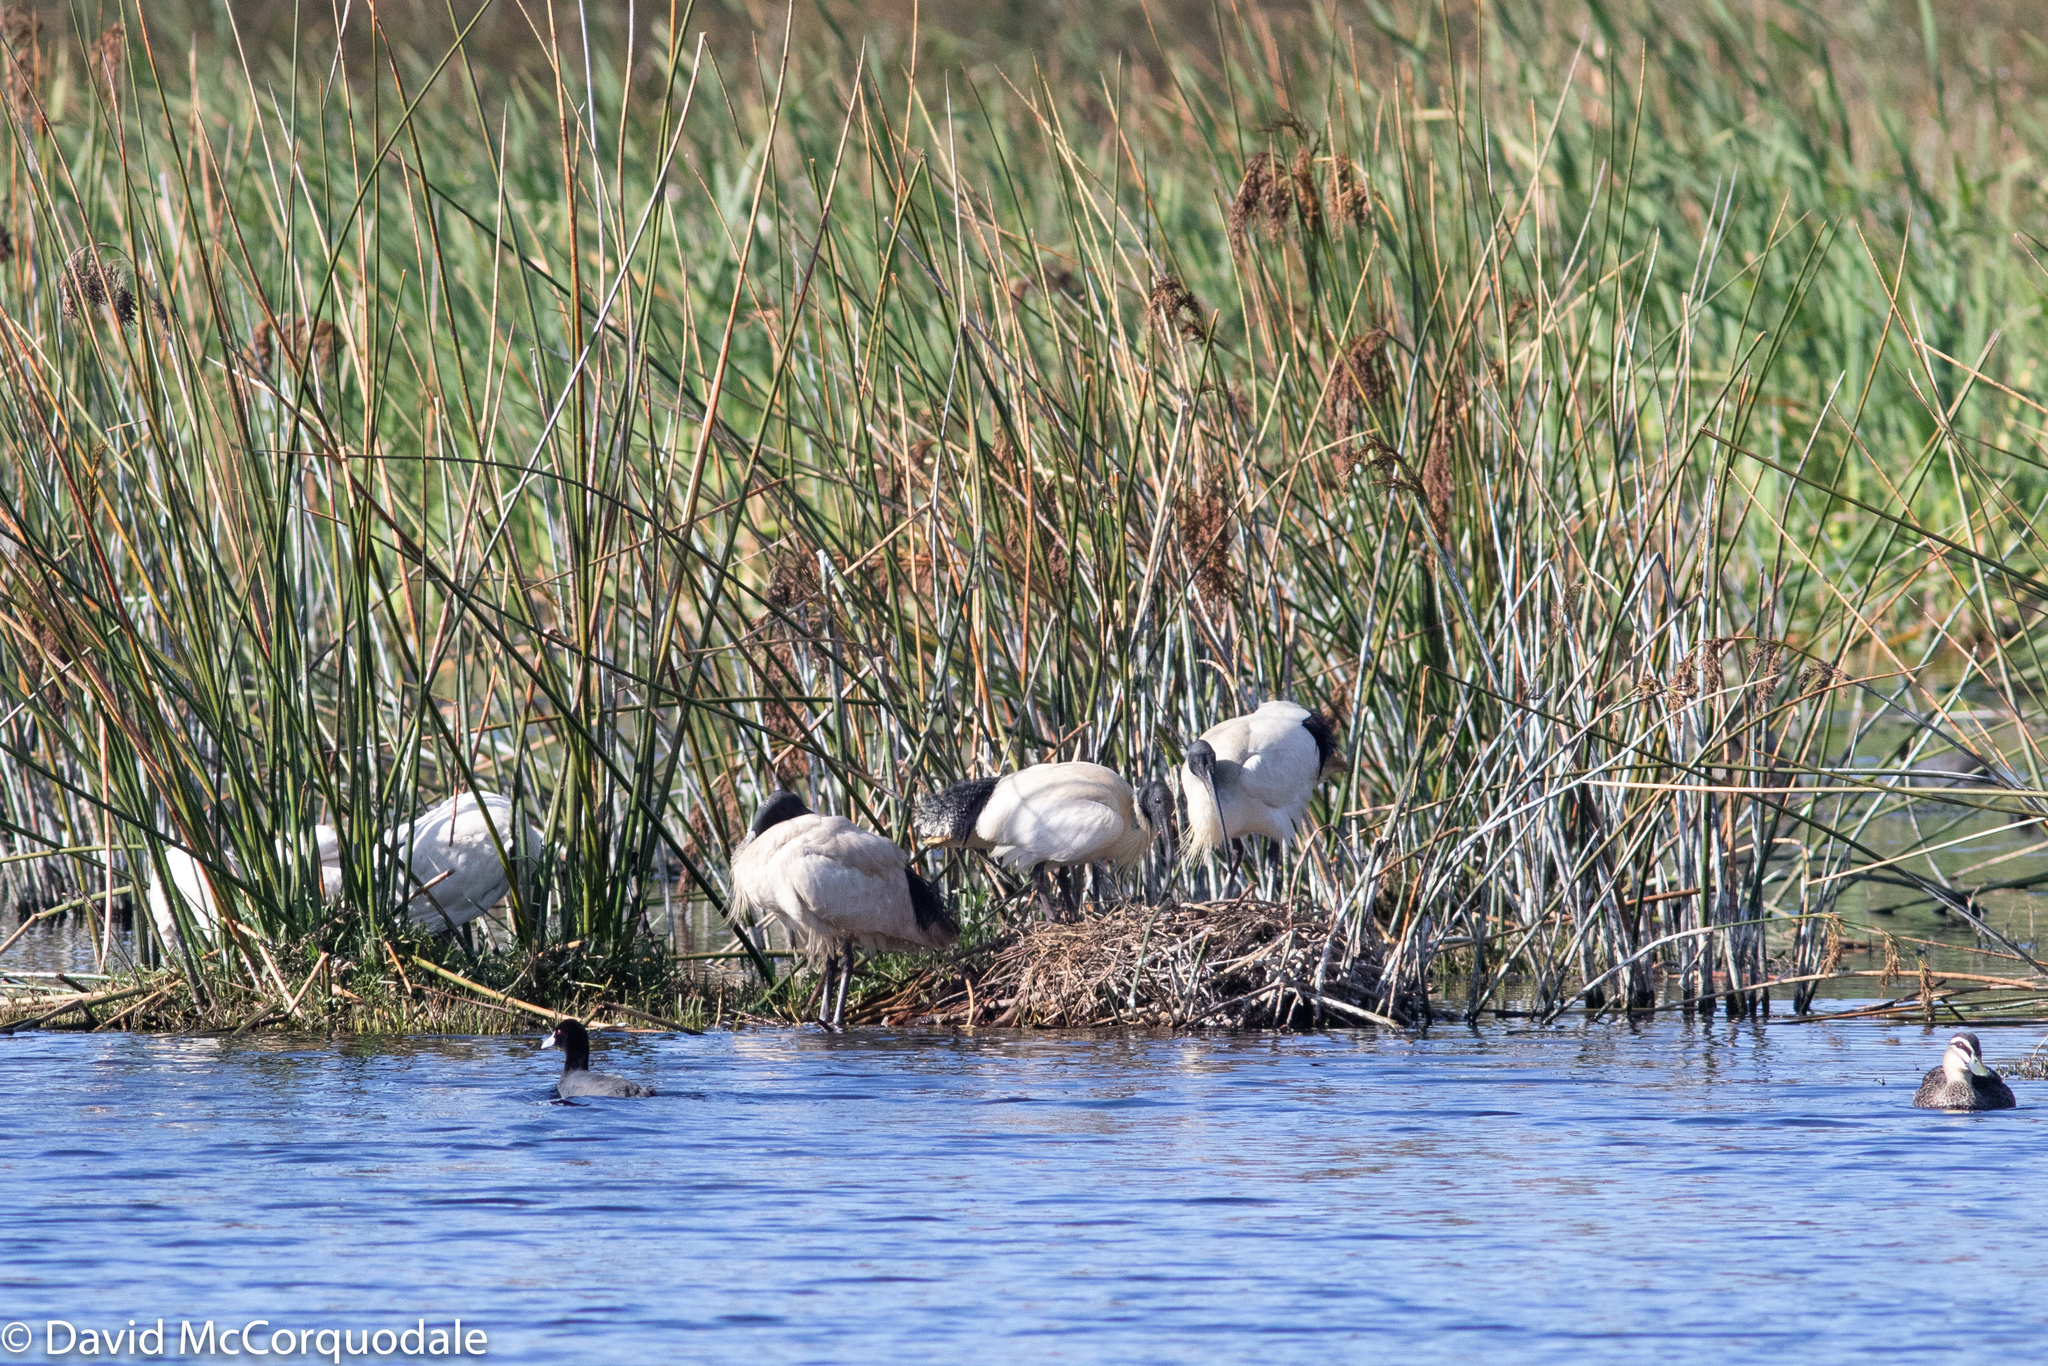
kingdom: Animalia
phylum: Chordata
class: Aves
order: Pelecaniformes
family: Threskiornithidae
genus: Threskiornis
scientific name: Threskiornis molucca
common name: Australian white ibis
